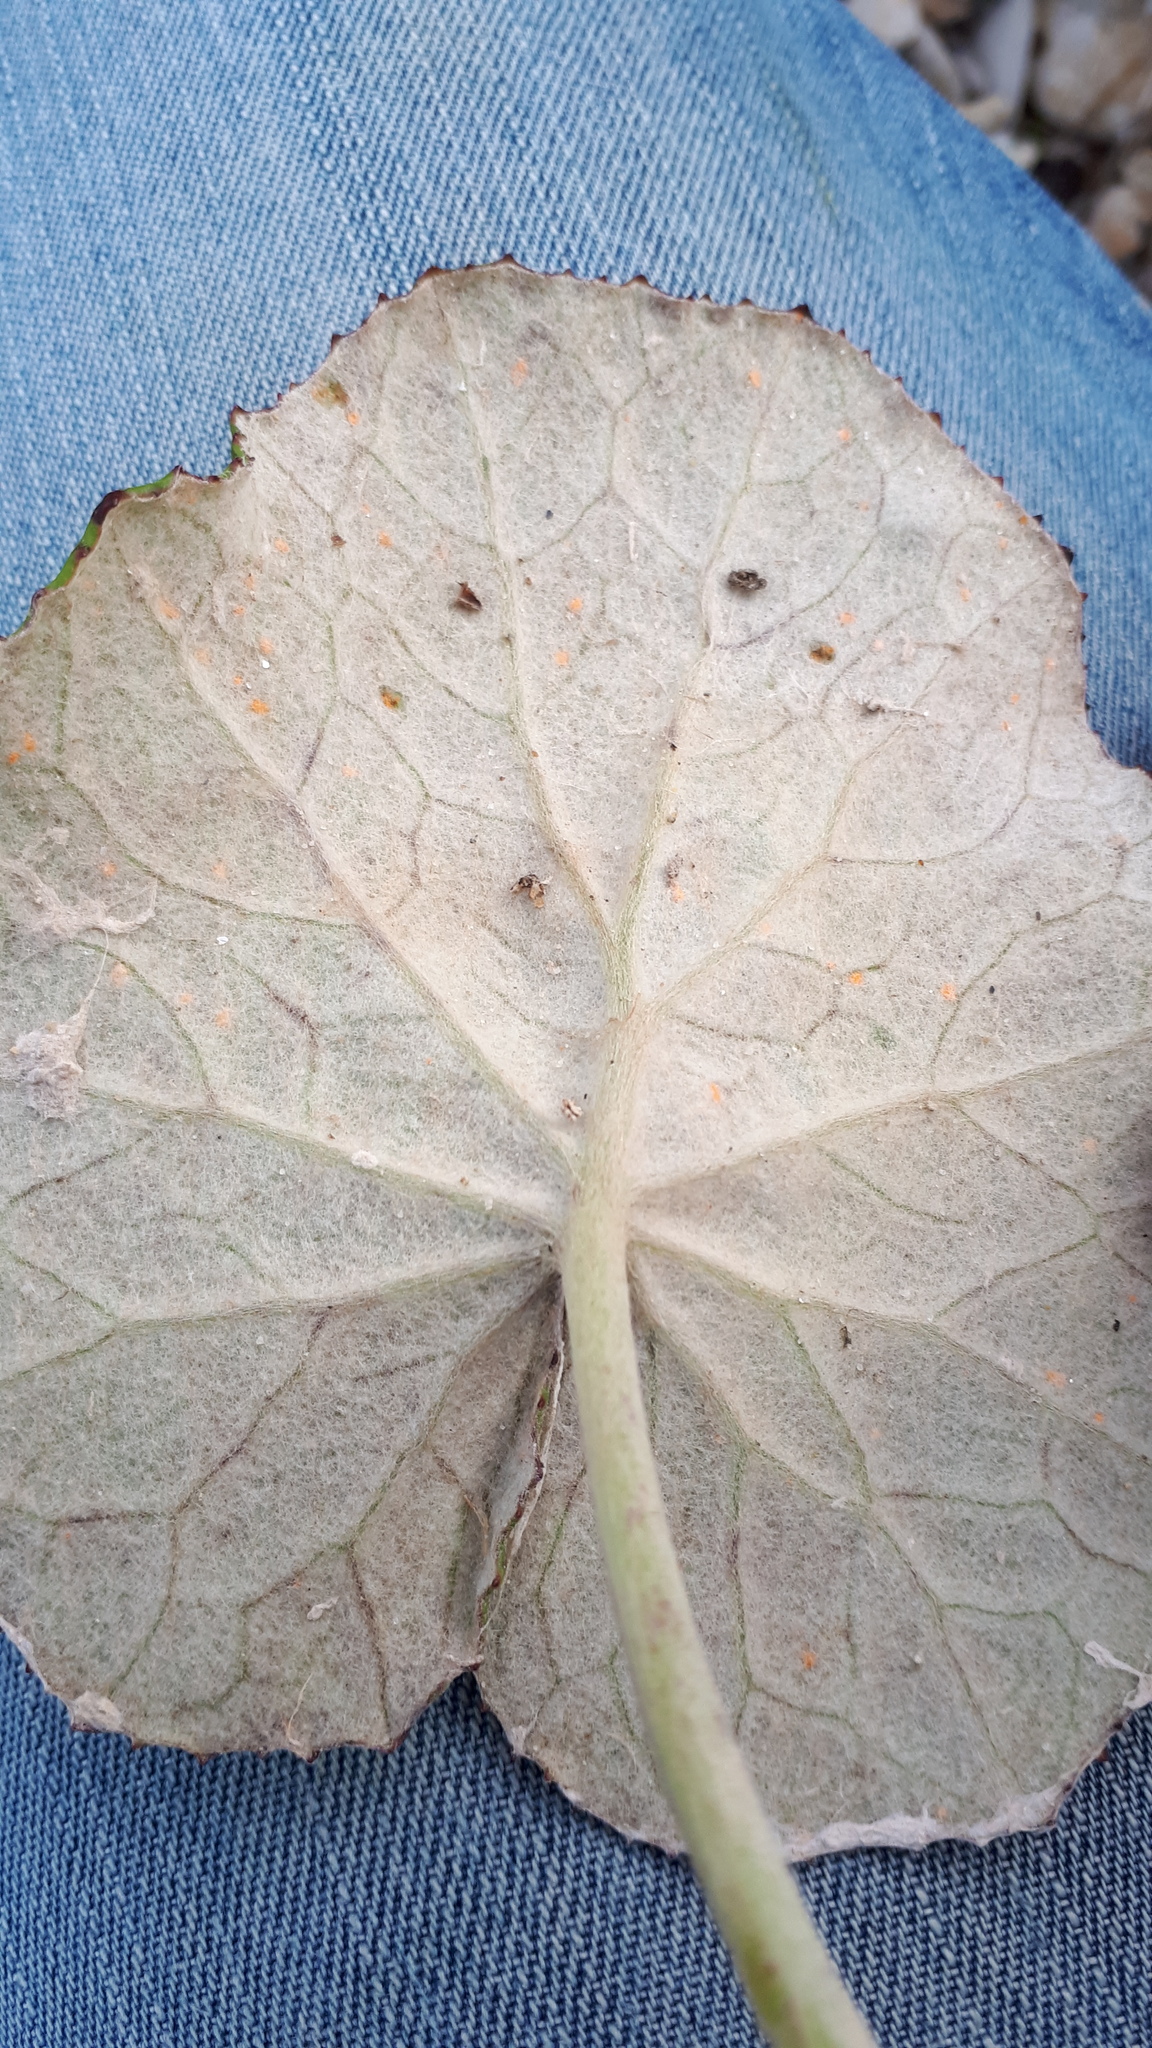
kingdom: Fungi
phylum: Basidiomycota
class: Pucciniomycetes
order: Pucciniales
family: Coleosporiaceae
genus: Coleosporium
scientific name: Coleosporium tussilaginis
